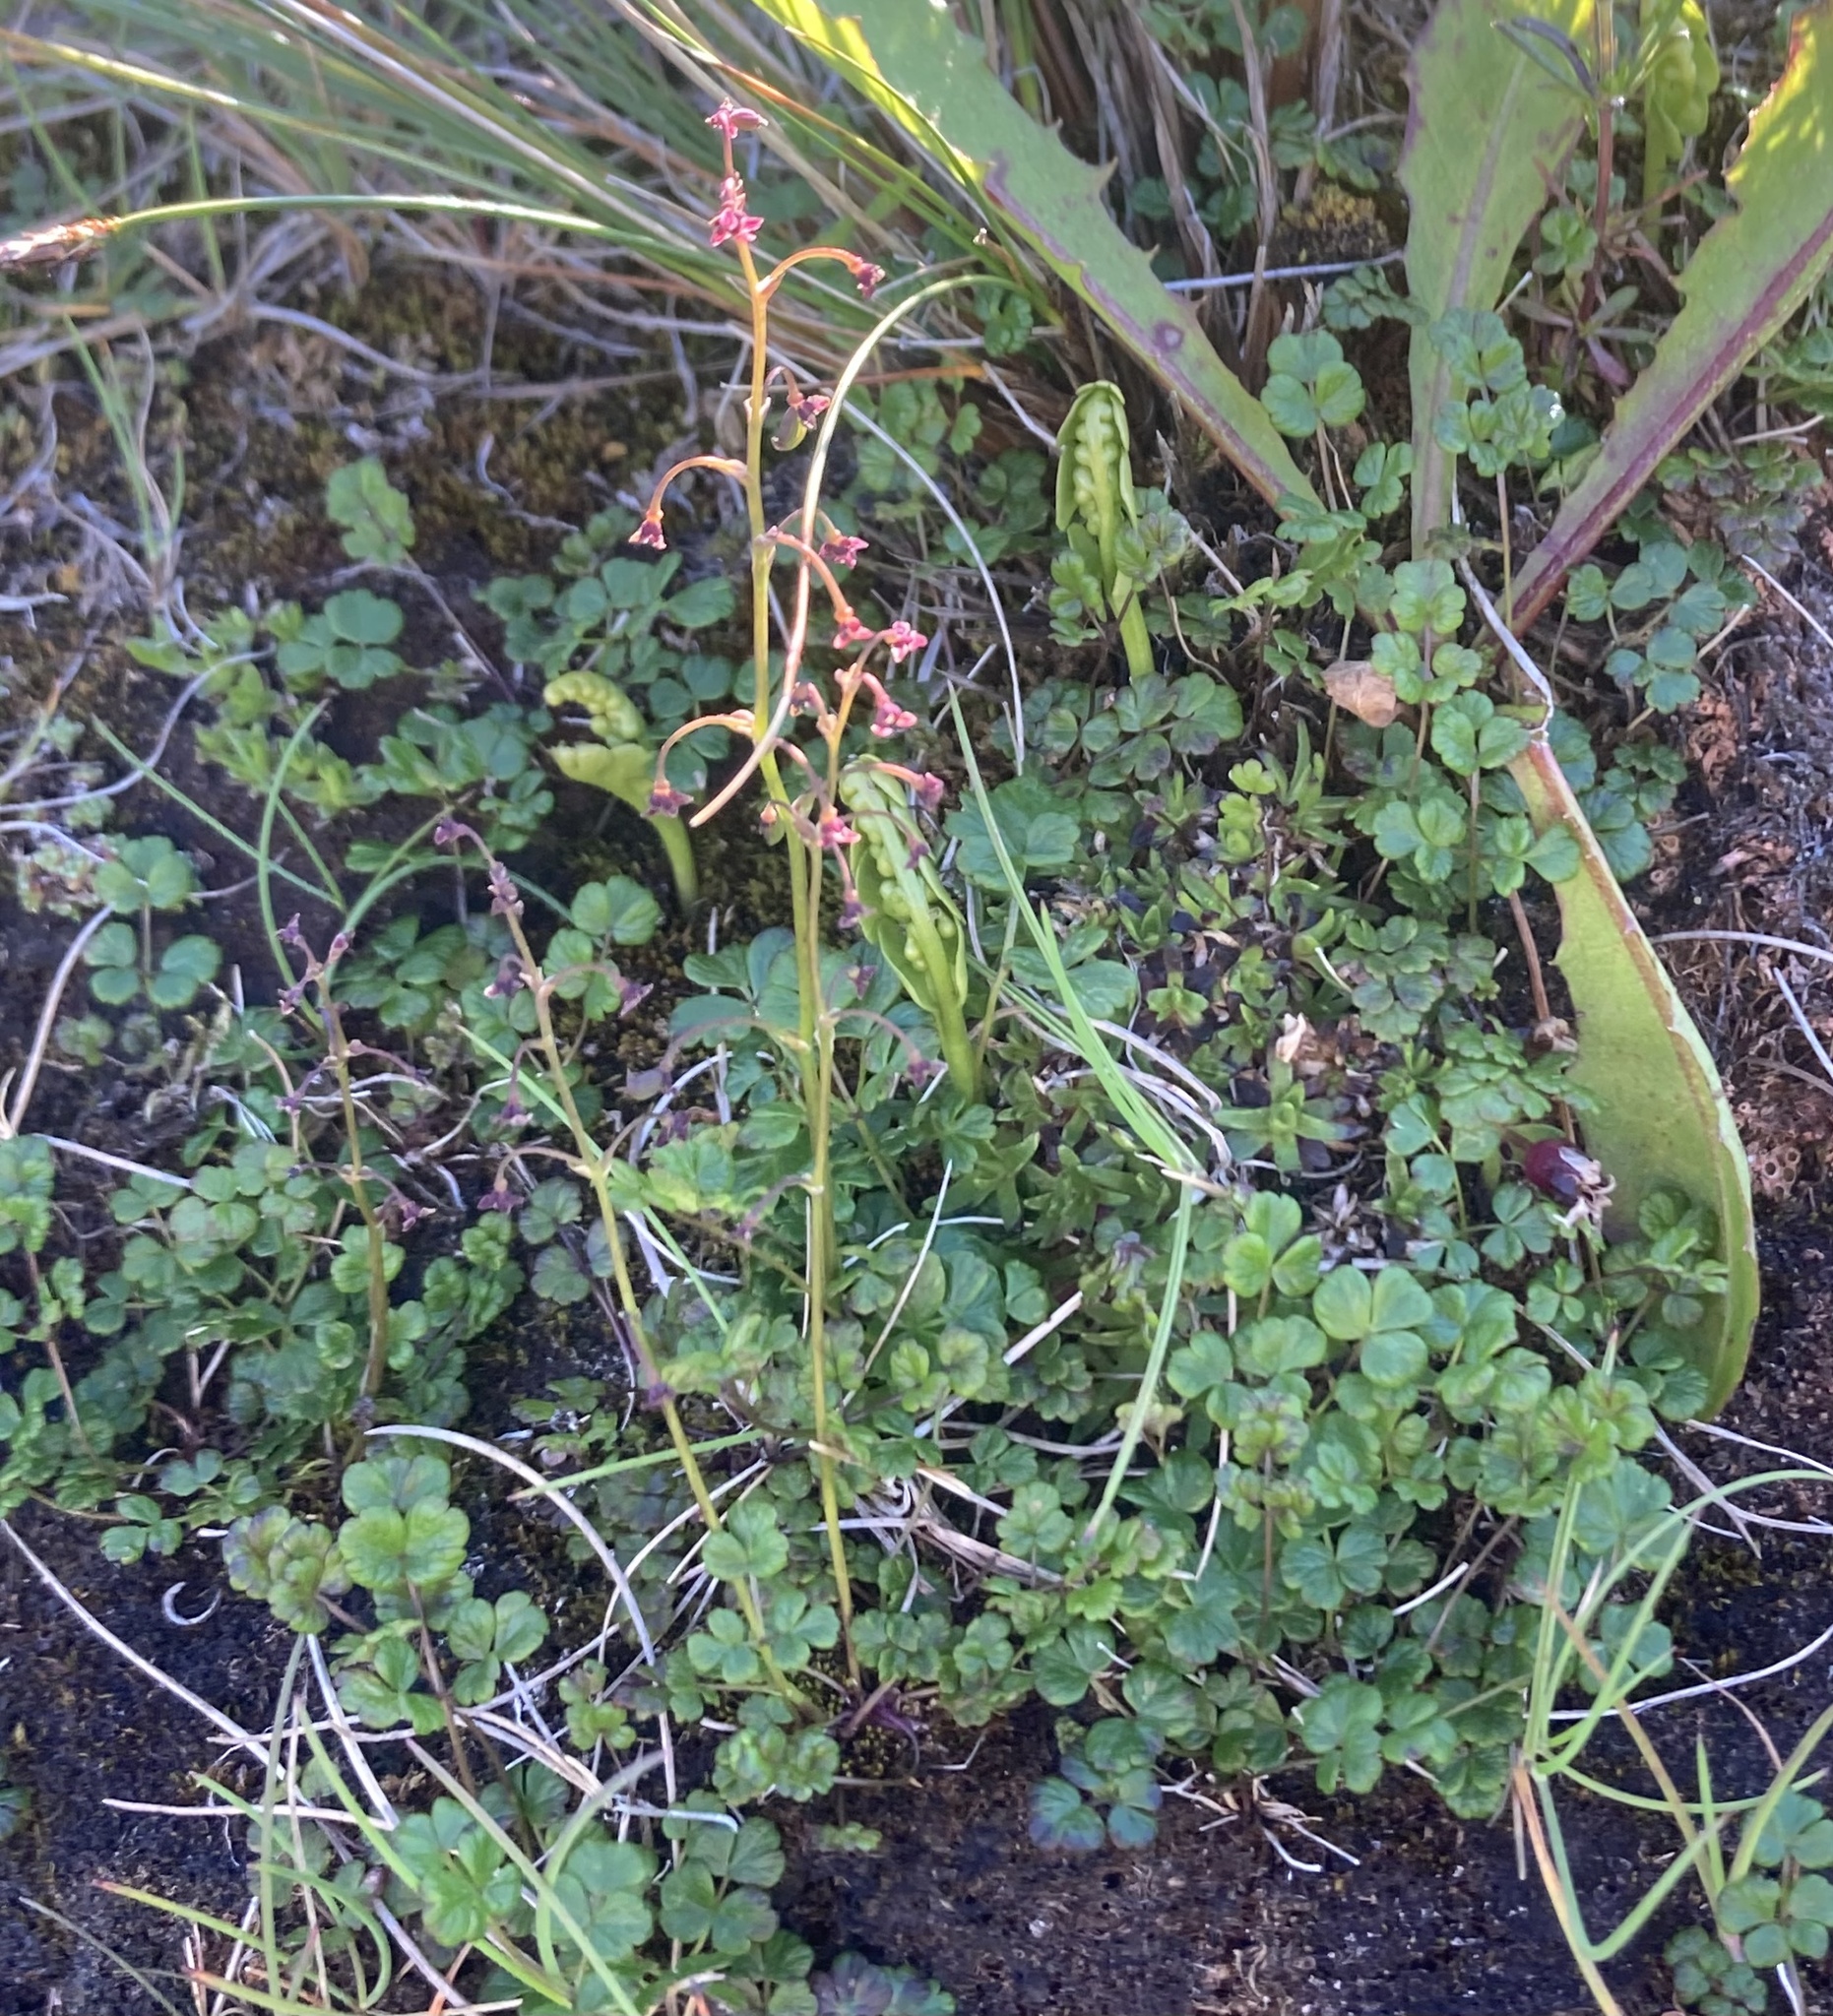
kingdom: Plantae
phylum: Tracheophyta
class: Magnoliopsida
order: Ranunculales
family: Ranunculaceae
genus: Thalictrum
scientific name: Thalictrum alpinum
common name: Alpine meadow-rue
